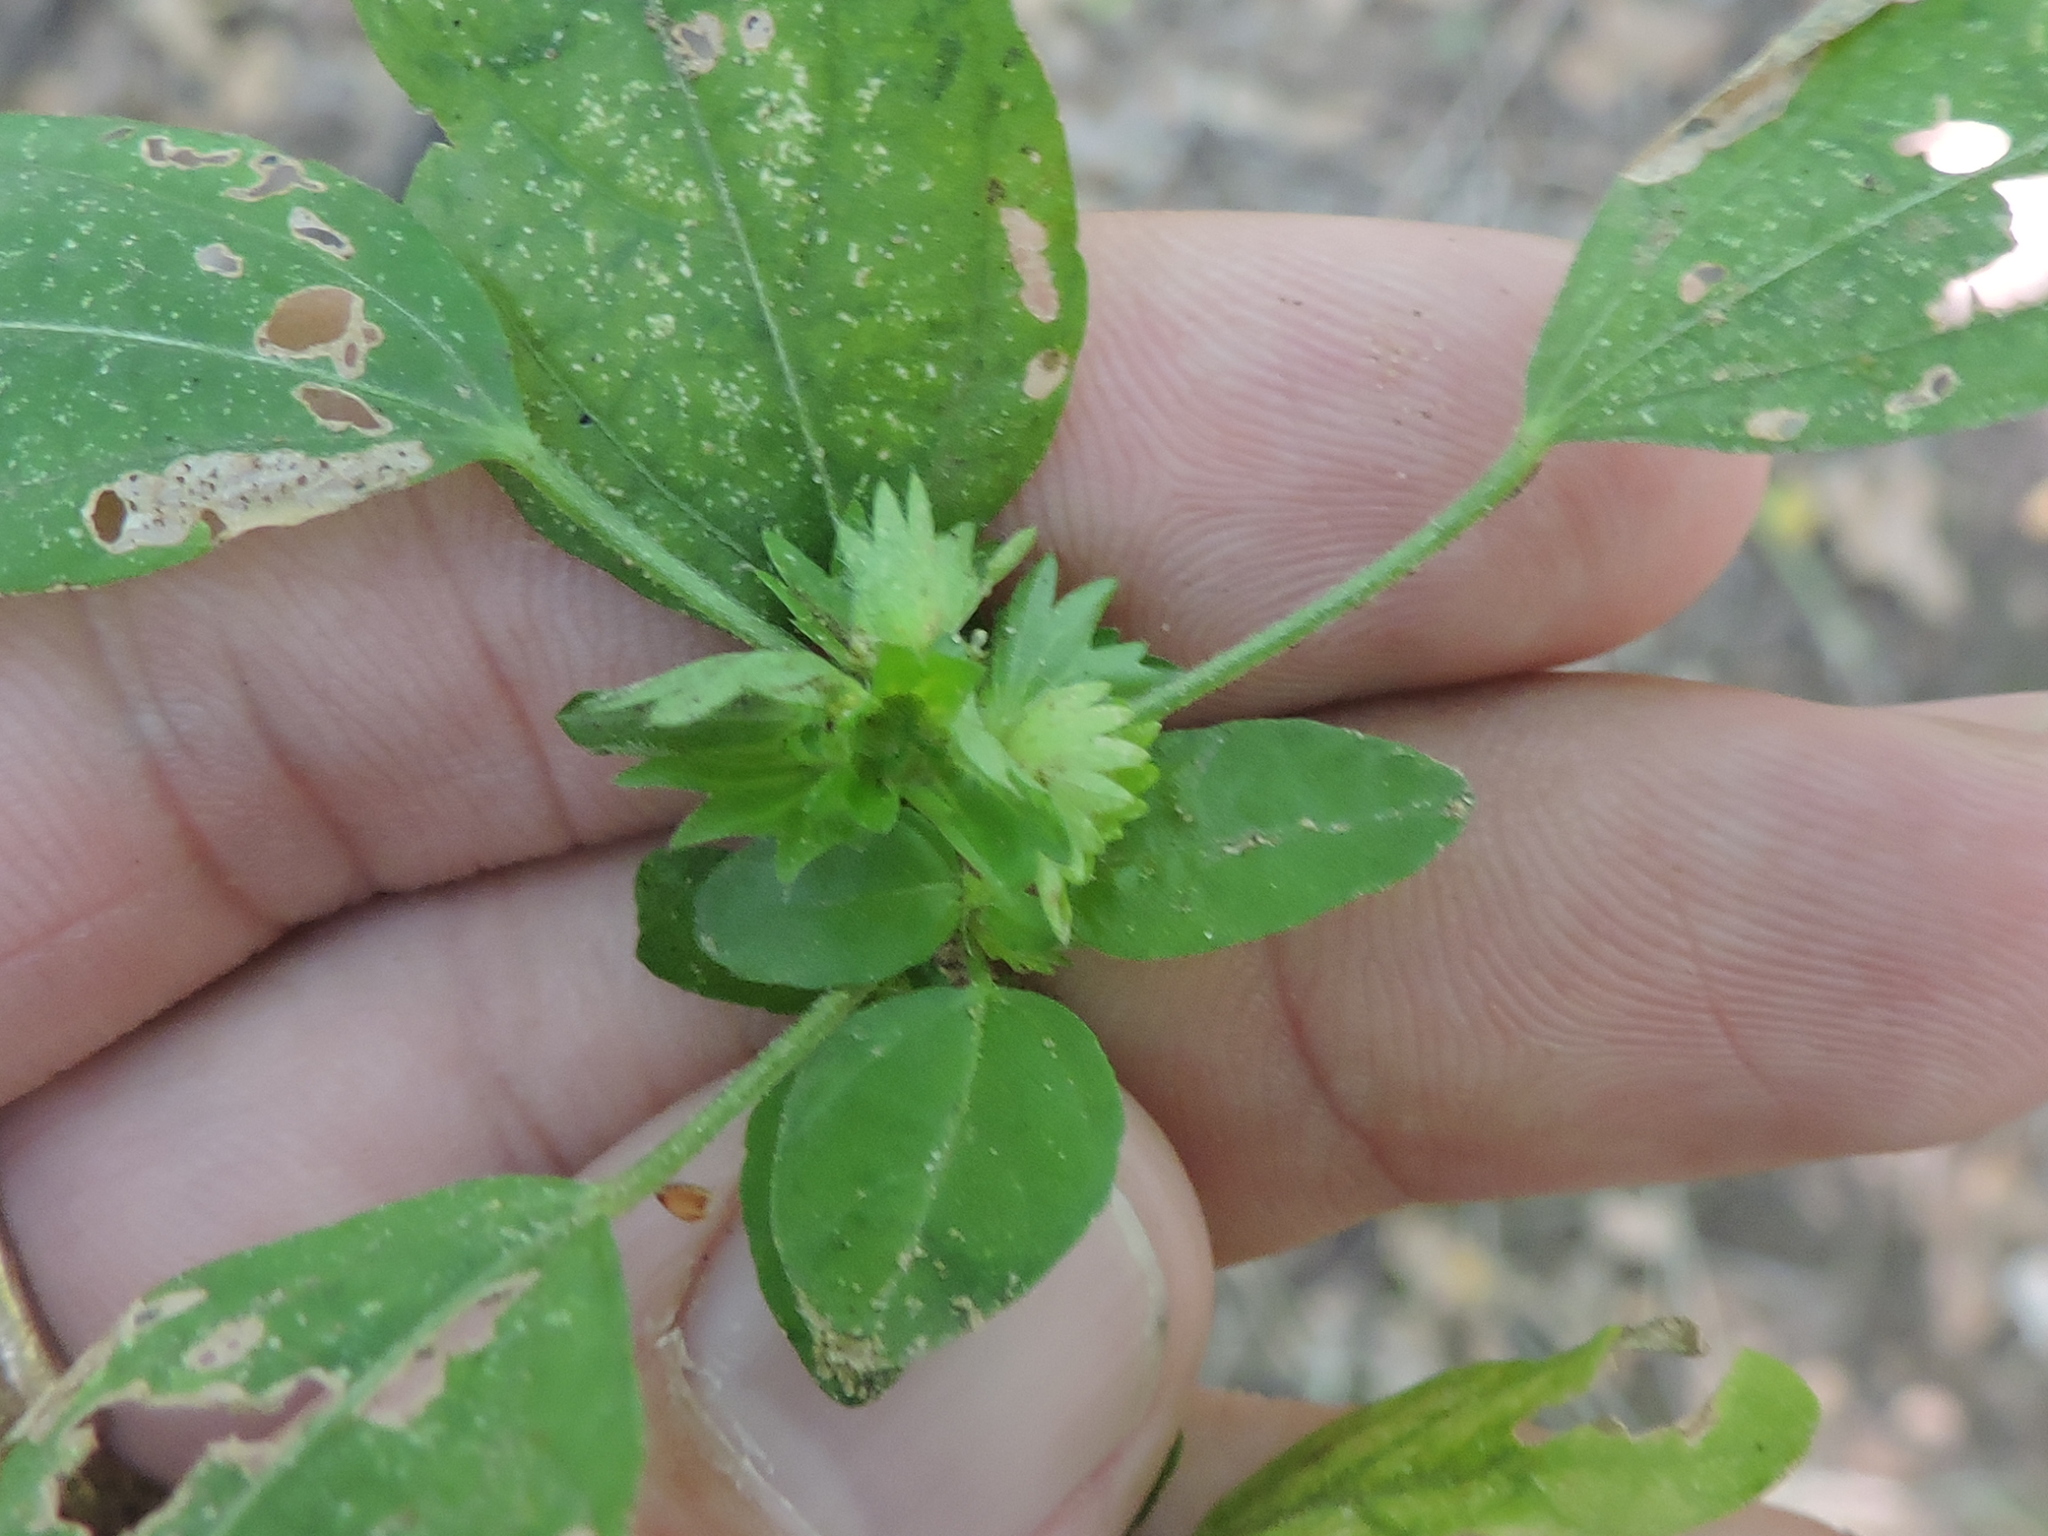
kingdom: Plantae
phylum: Tracheophyta
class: Magnoliopsida
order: Malpighiales
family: Euphorbiaceae
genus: Acalypha
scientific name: Acalypha virginica
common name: Virginia copperleaf
